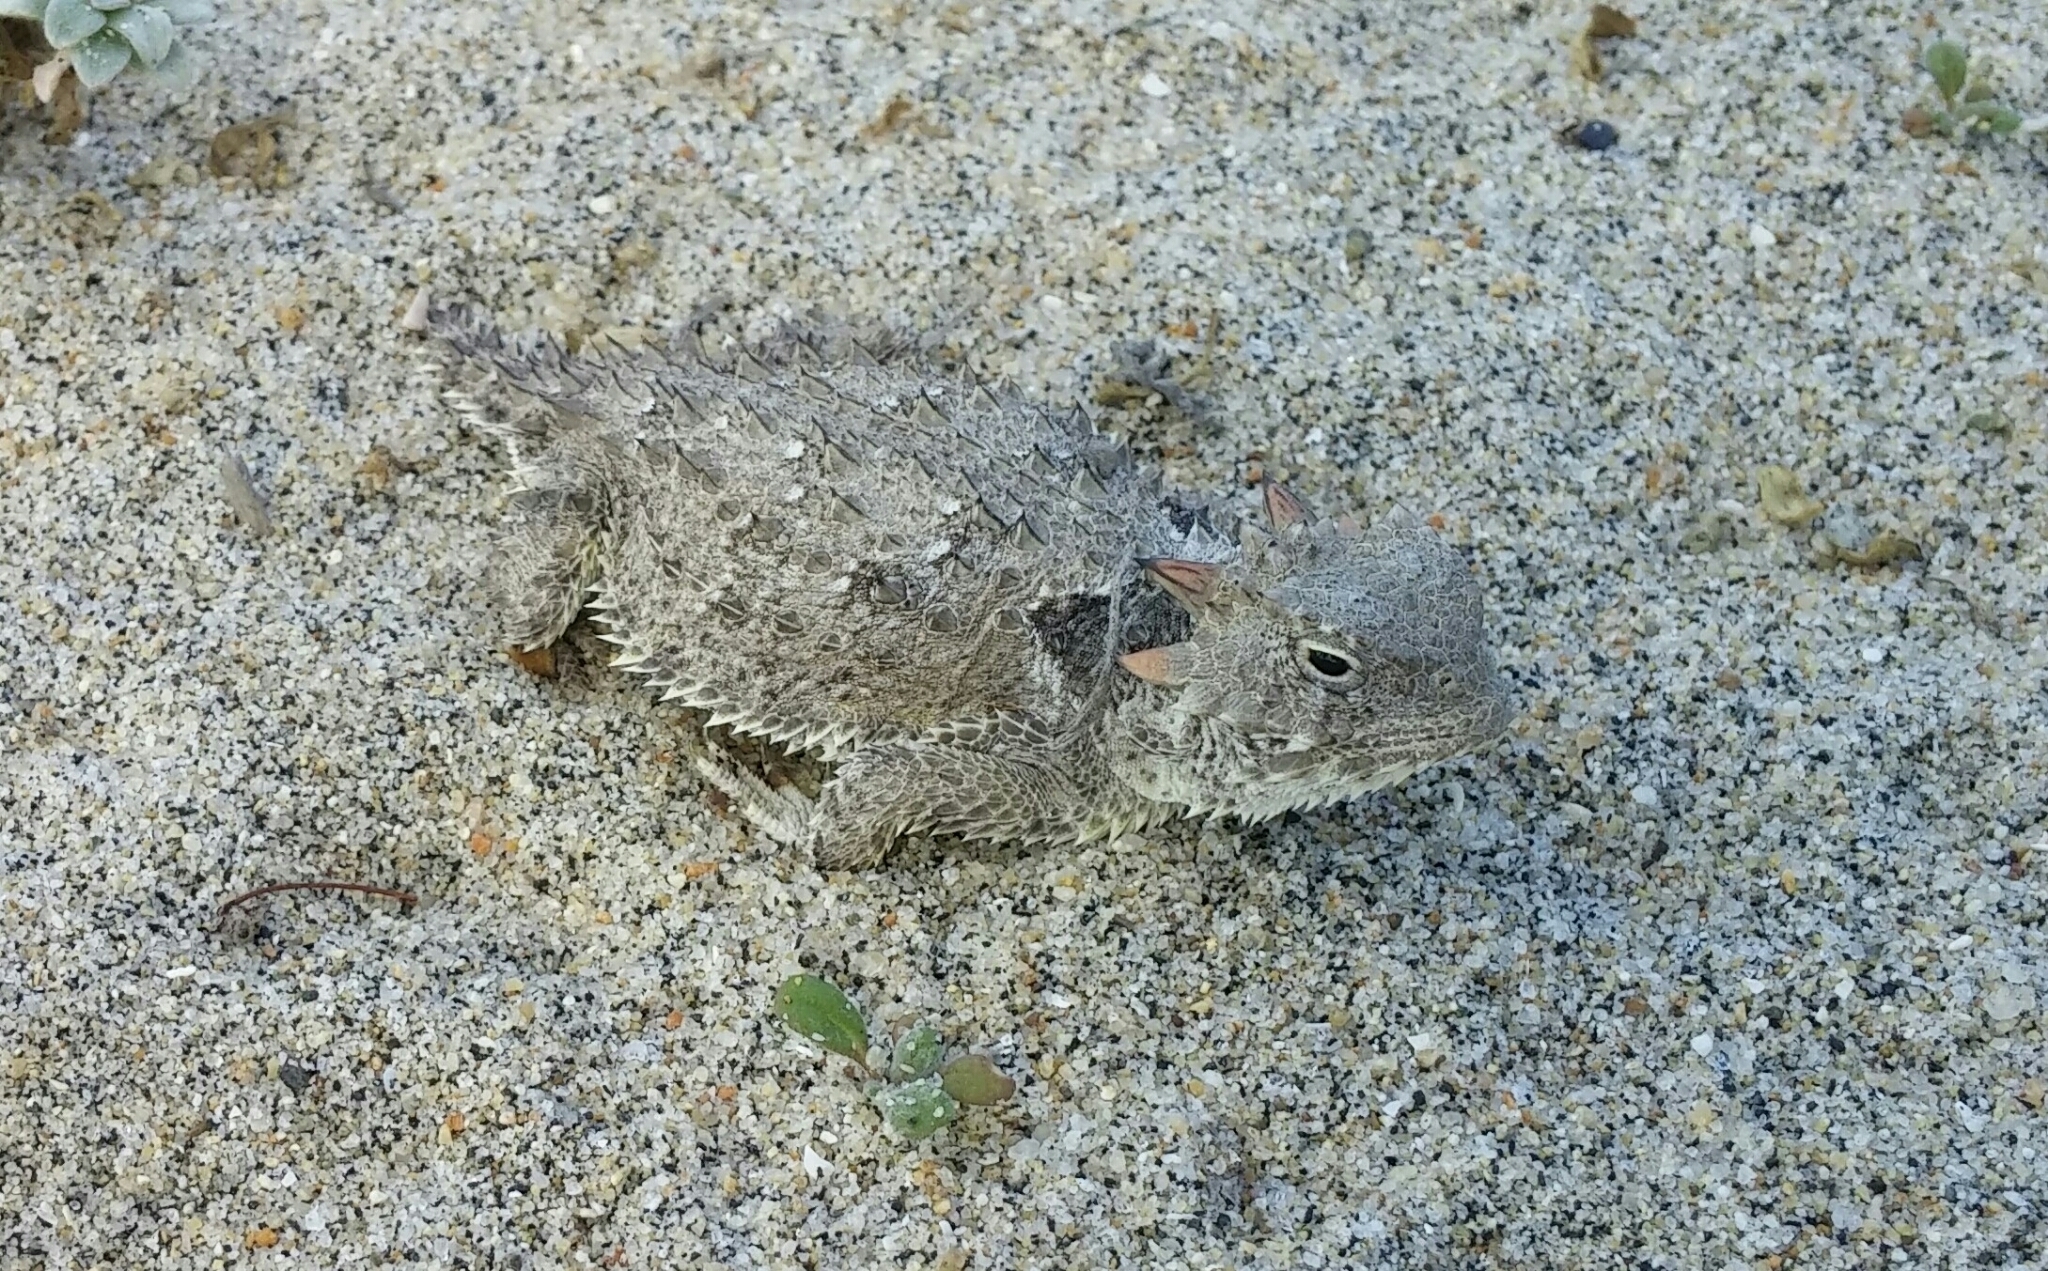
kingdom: Animalia
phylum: Chordata
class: Squamata
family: Phrynosomatidae
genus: Phrynosoma
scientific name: Phrynosoma blainvillii
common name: San diego horned lizard
